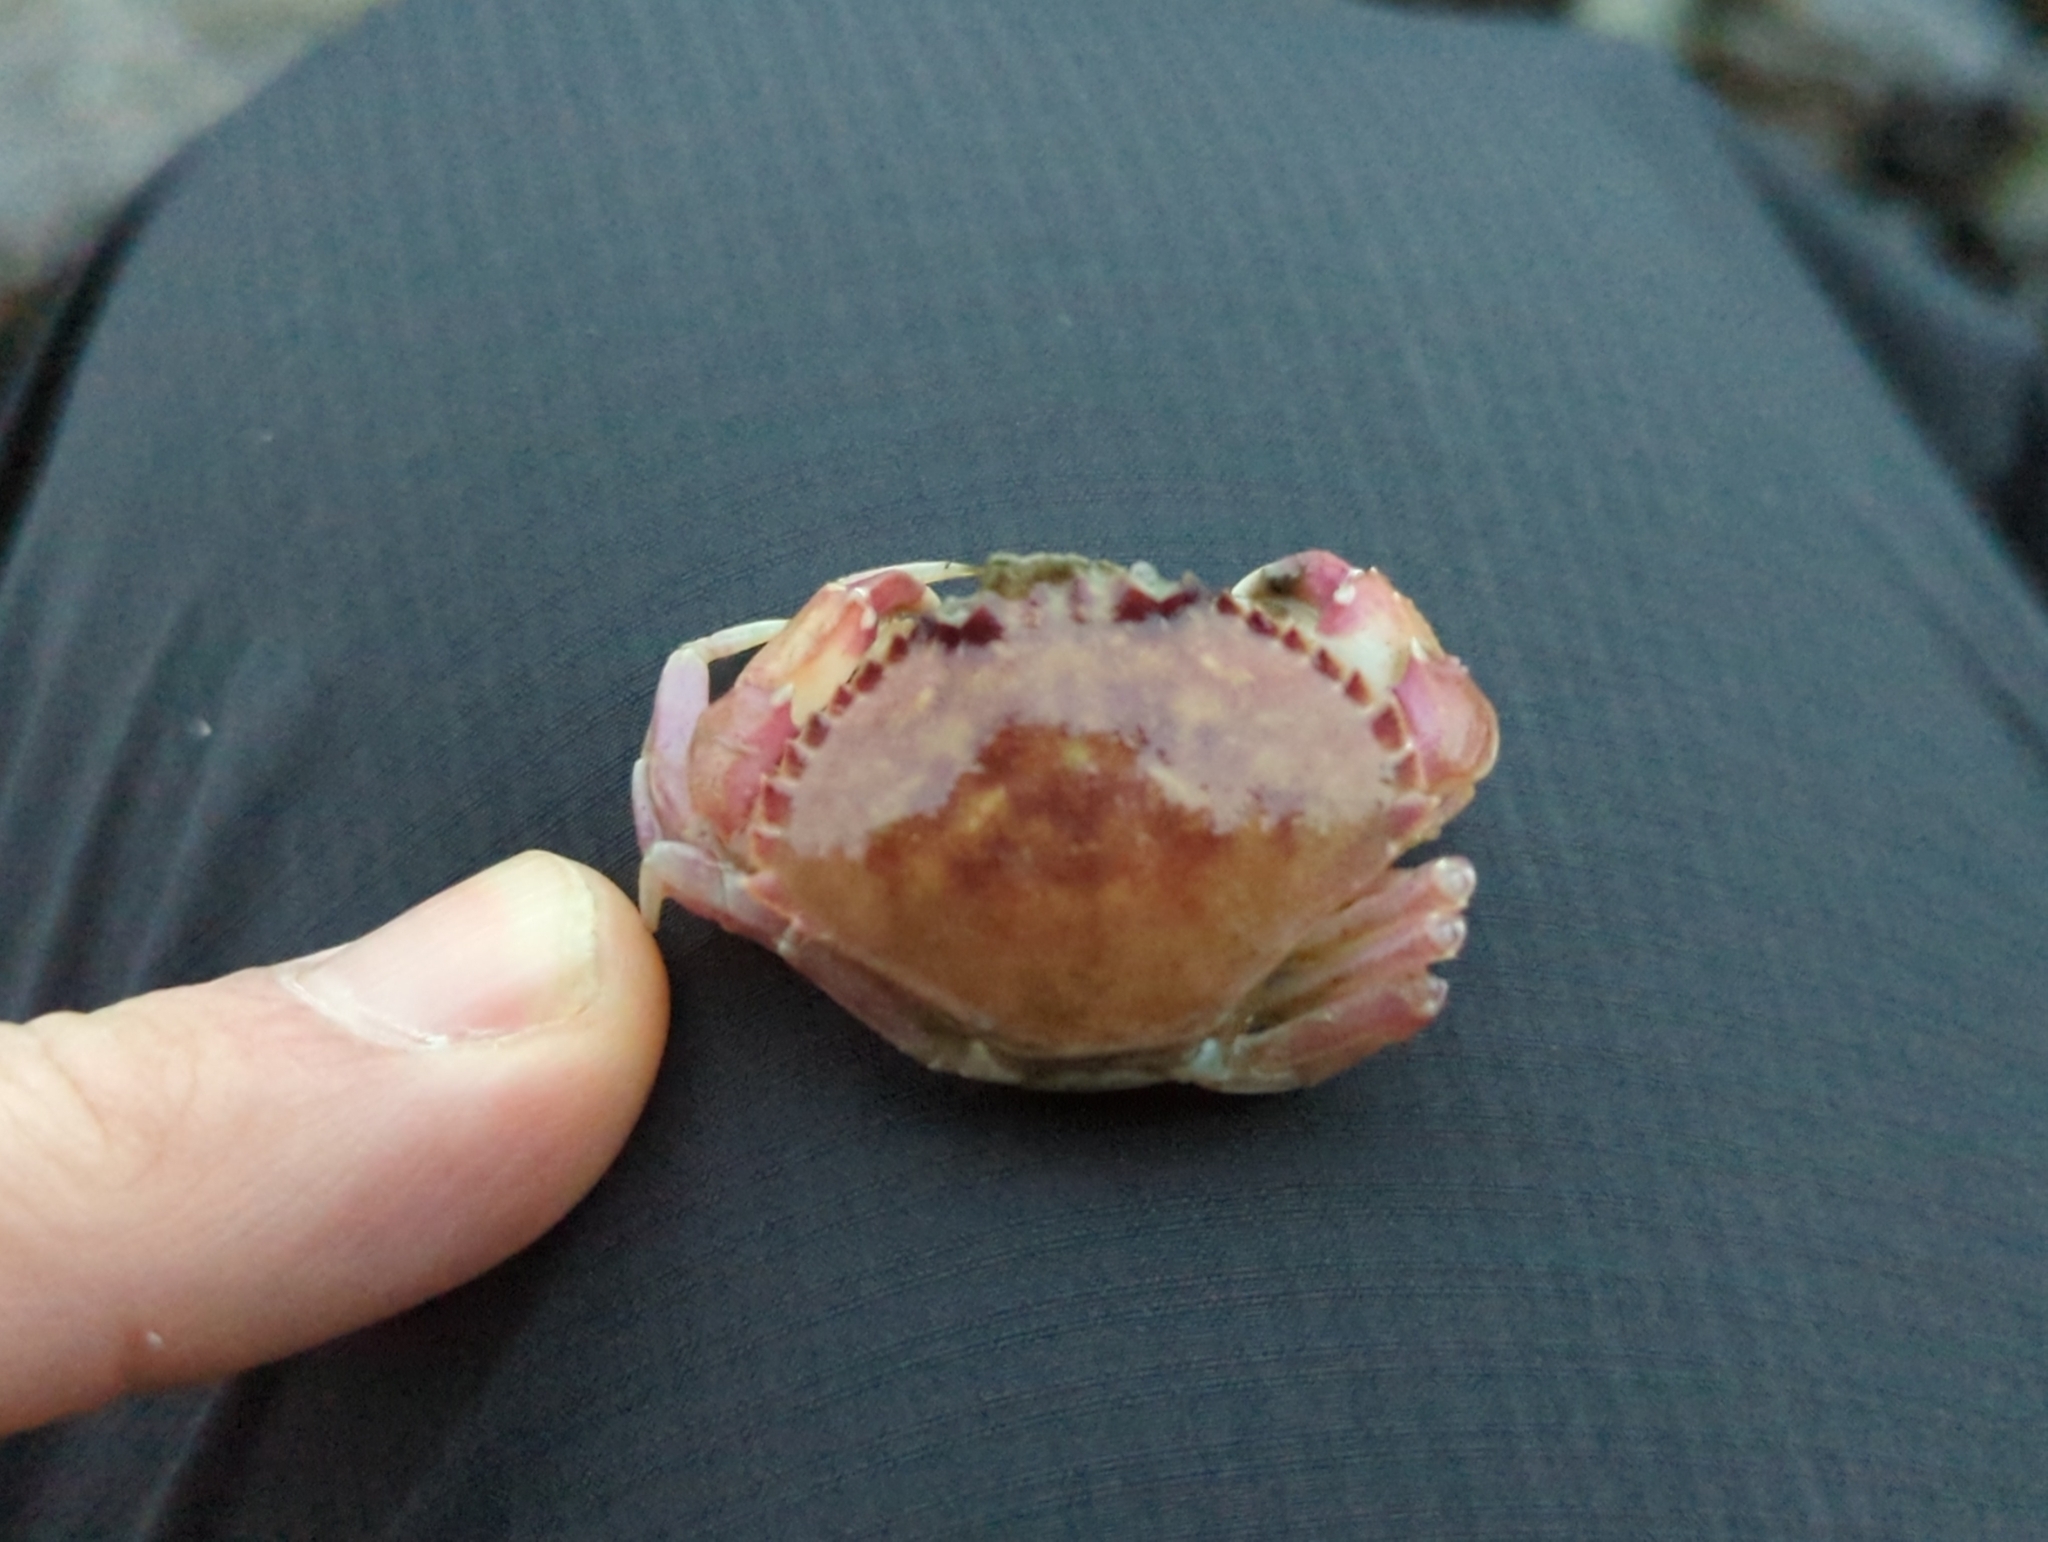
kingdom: Animalia
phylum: Arthropoda
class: Malacostraca
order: Decapoda
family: Cancridae
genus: Metacarcinus
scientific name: Metacarcinus gracilis
